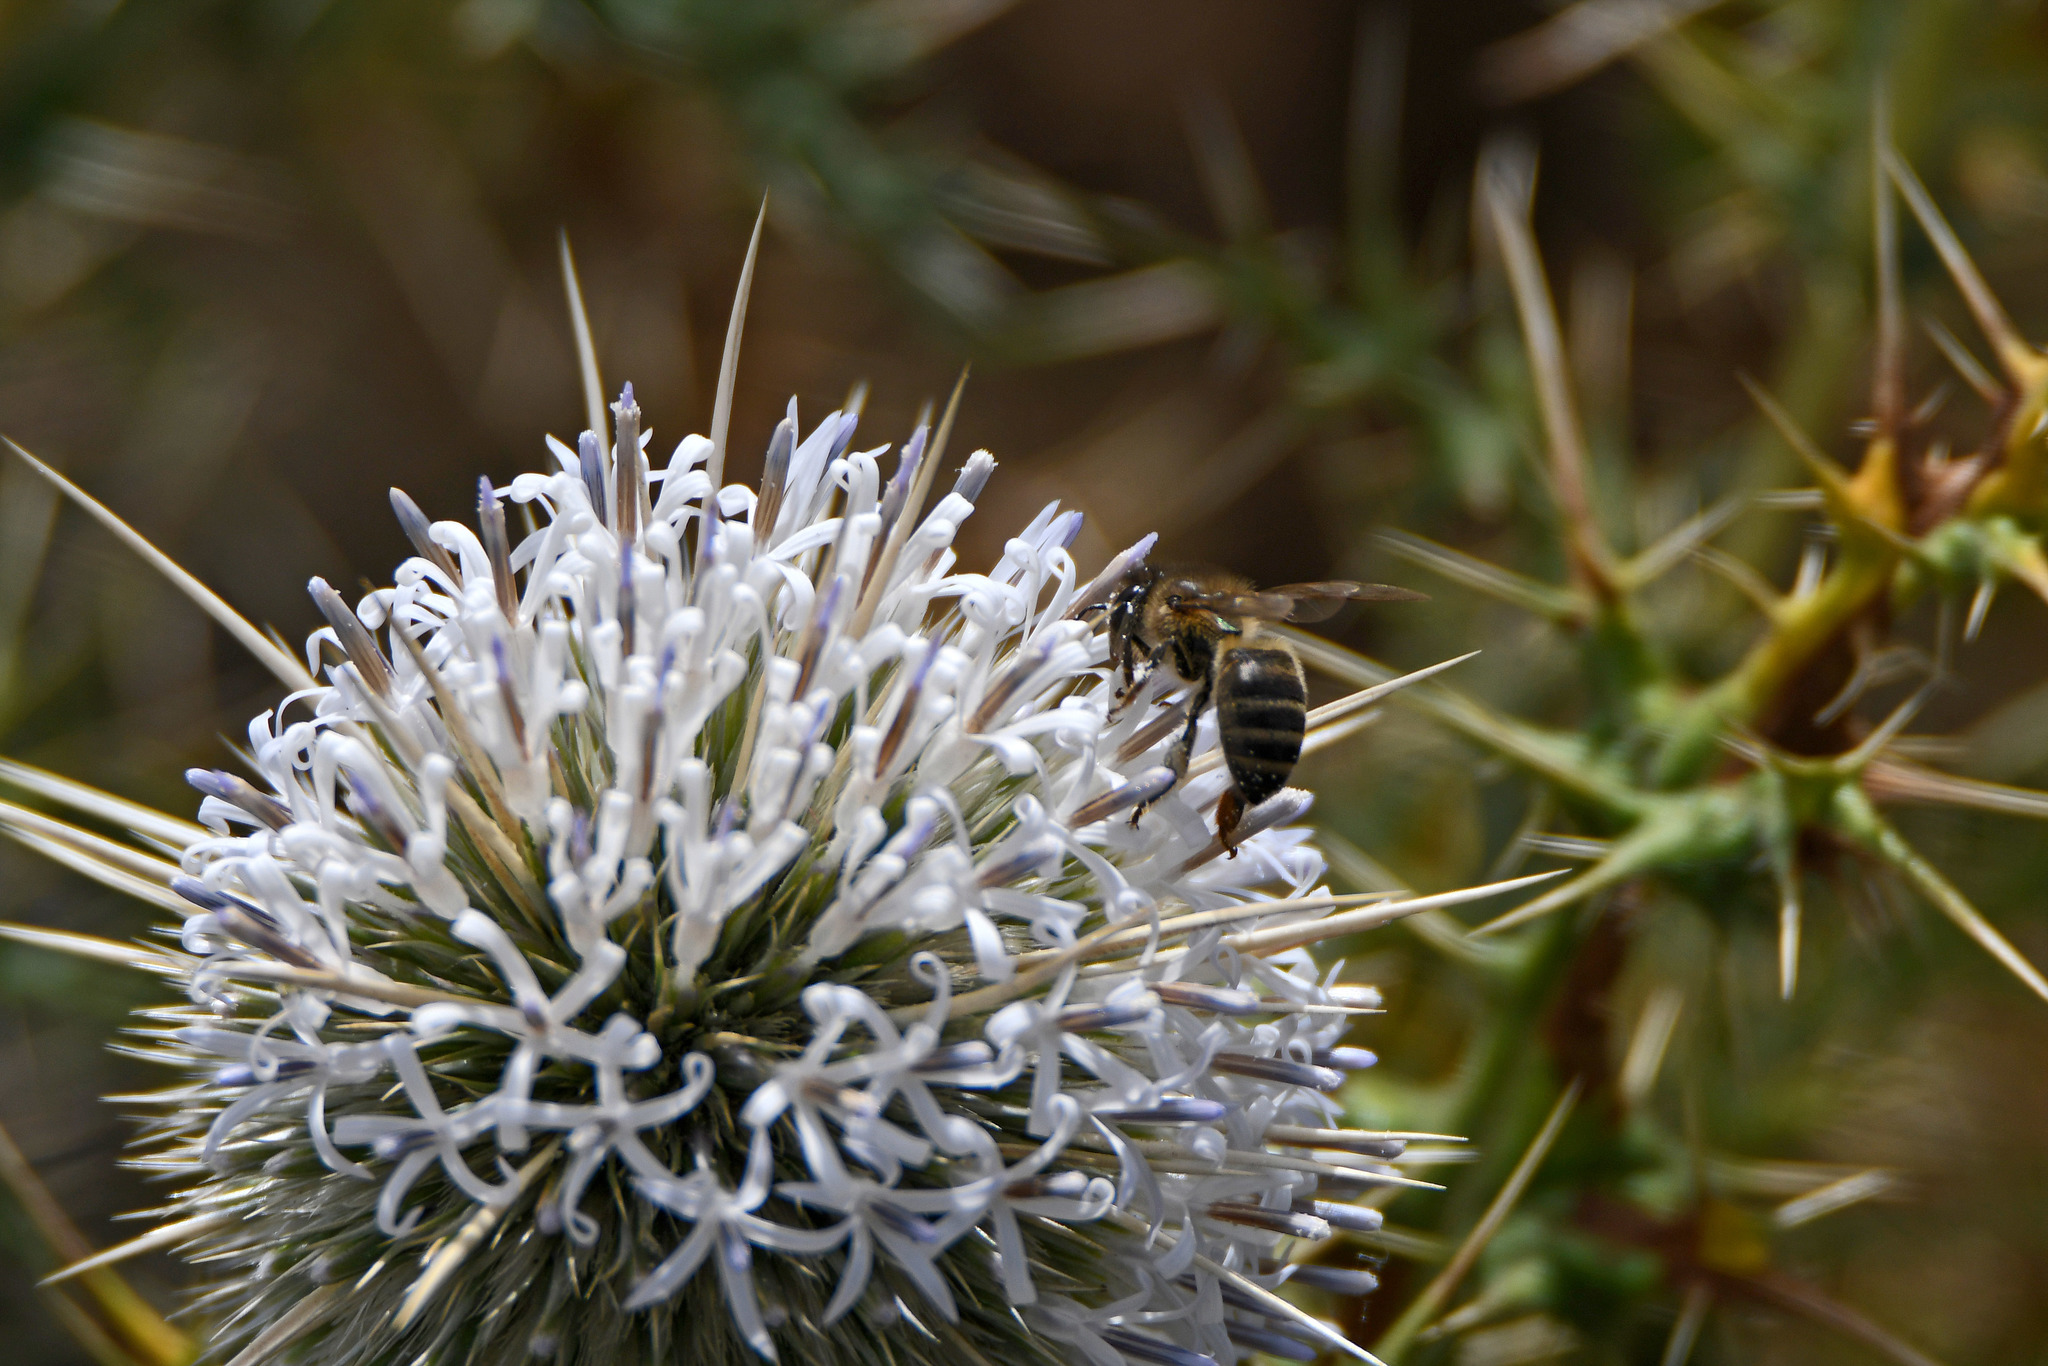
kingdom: Animalia
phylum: Arthropoda
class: Insecta
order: Hymenoptera
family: Apidae
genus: Apis
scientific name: Apis mellifera
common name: Honey bee
